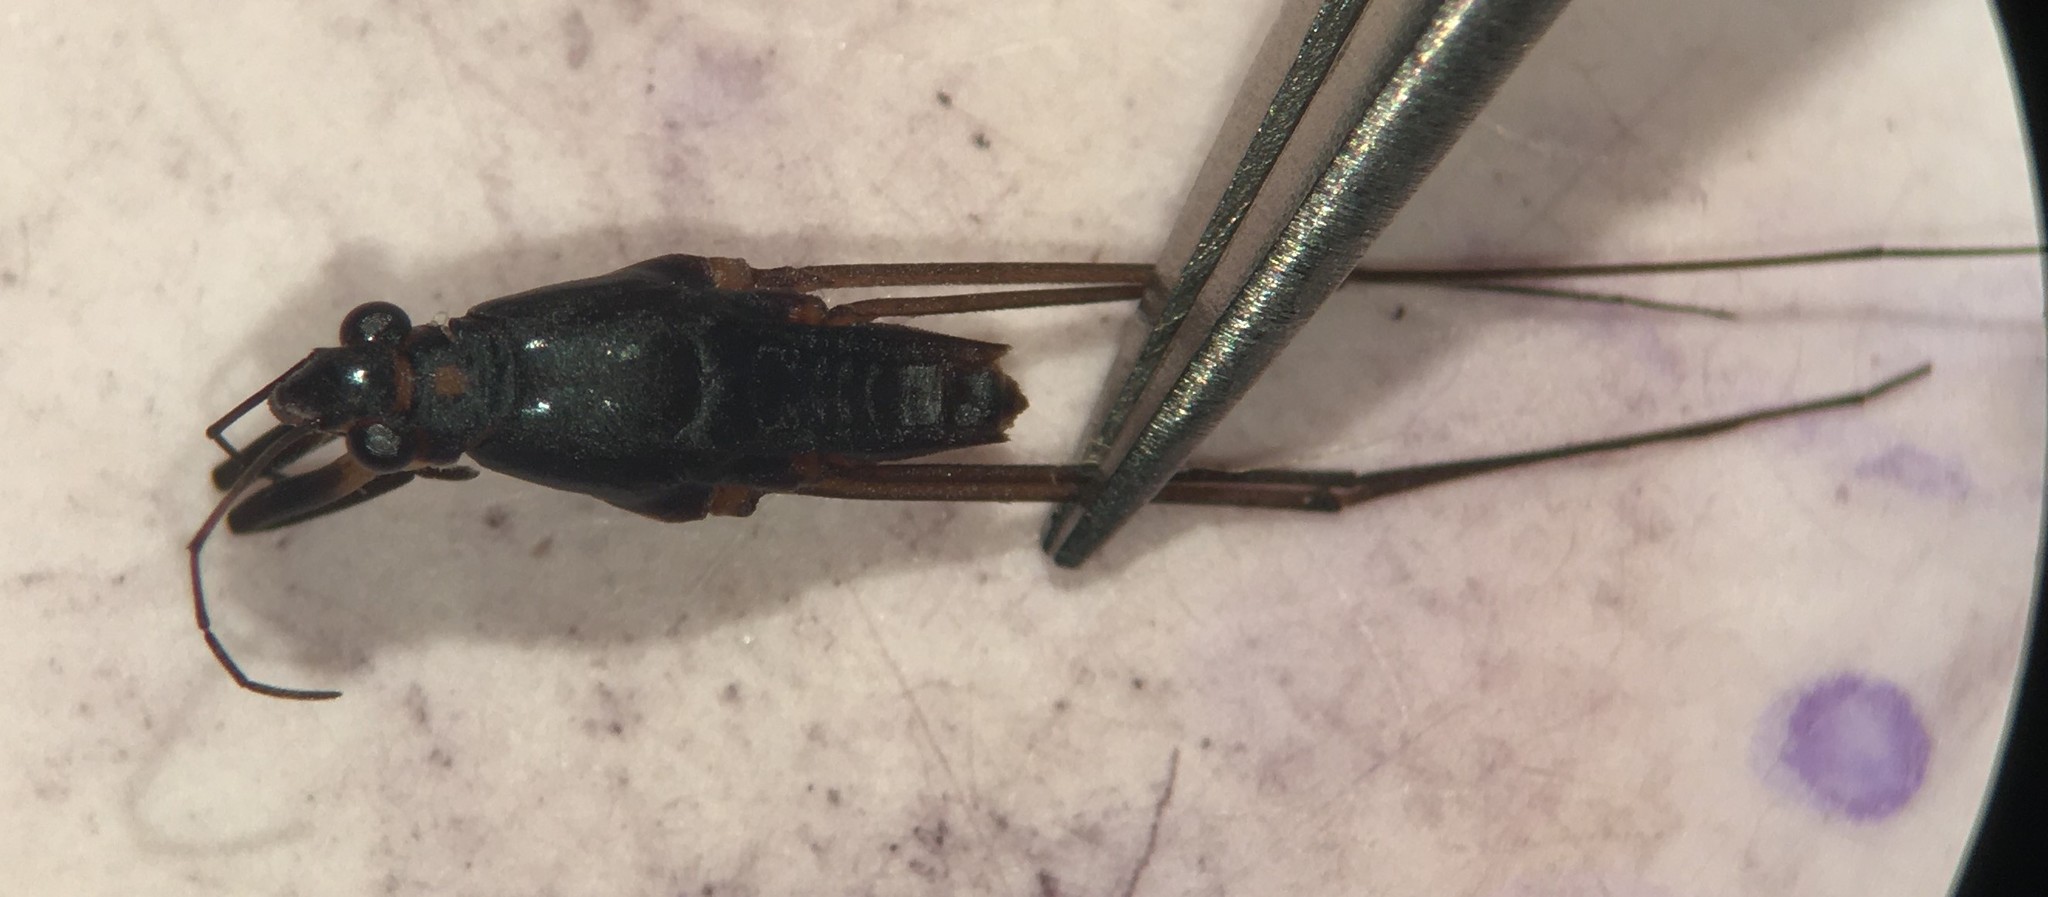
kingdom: Animalia
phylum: Arthropoda
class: Insecta
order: Hemiptera
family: Gerridae
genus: Neogerris
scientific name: Neogerris hesione
